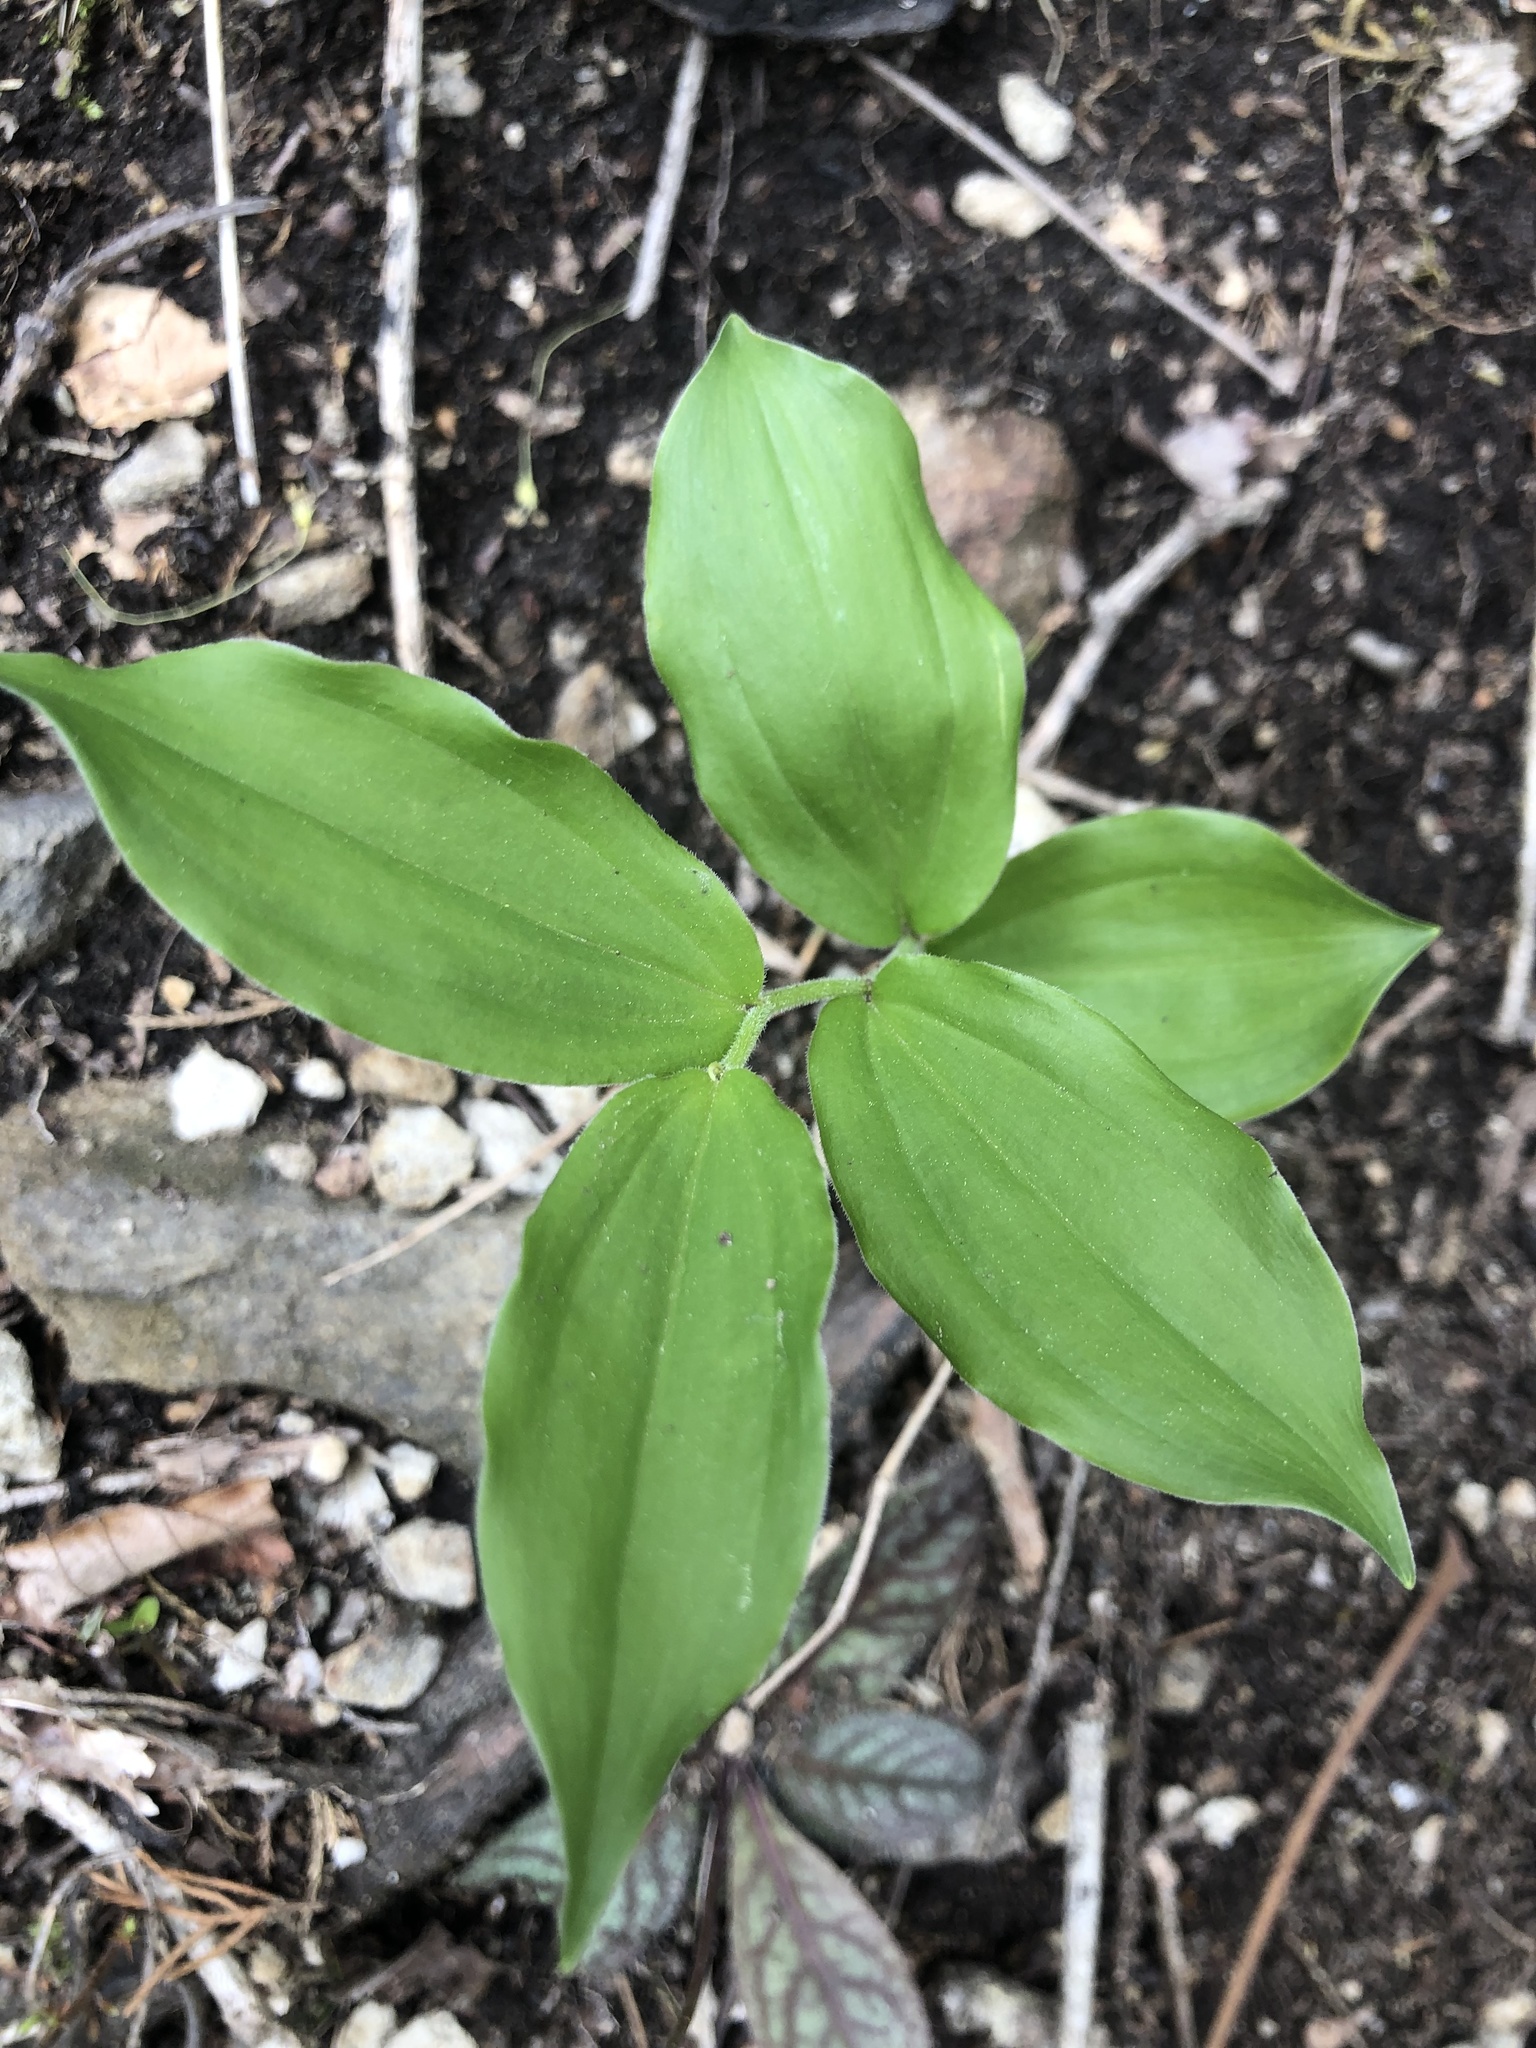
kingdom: Plantae
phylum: Tracheophyta
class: Liliopsida
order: Asparagales
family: Asparagaceae
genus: Maianthemum
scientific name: Maianthemum racemosum
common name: False spikenard
